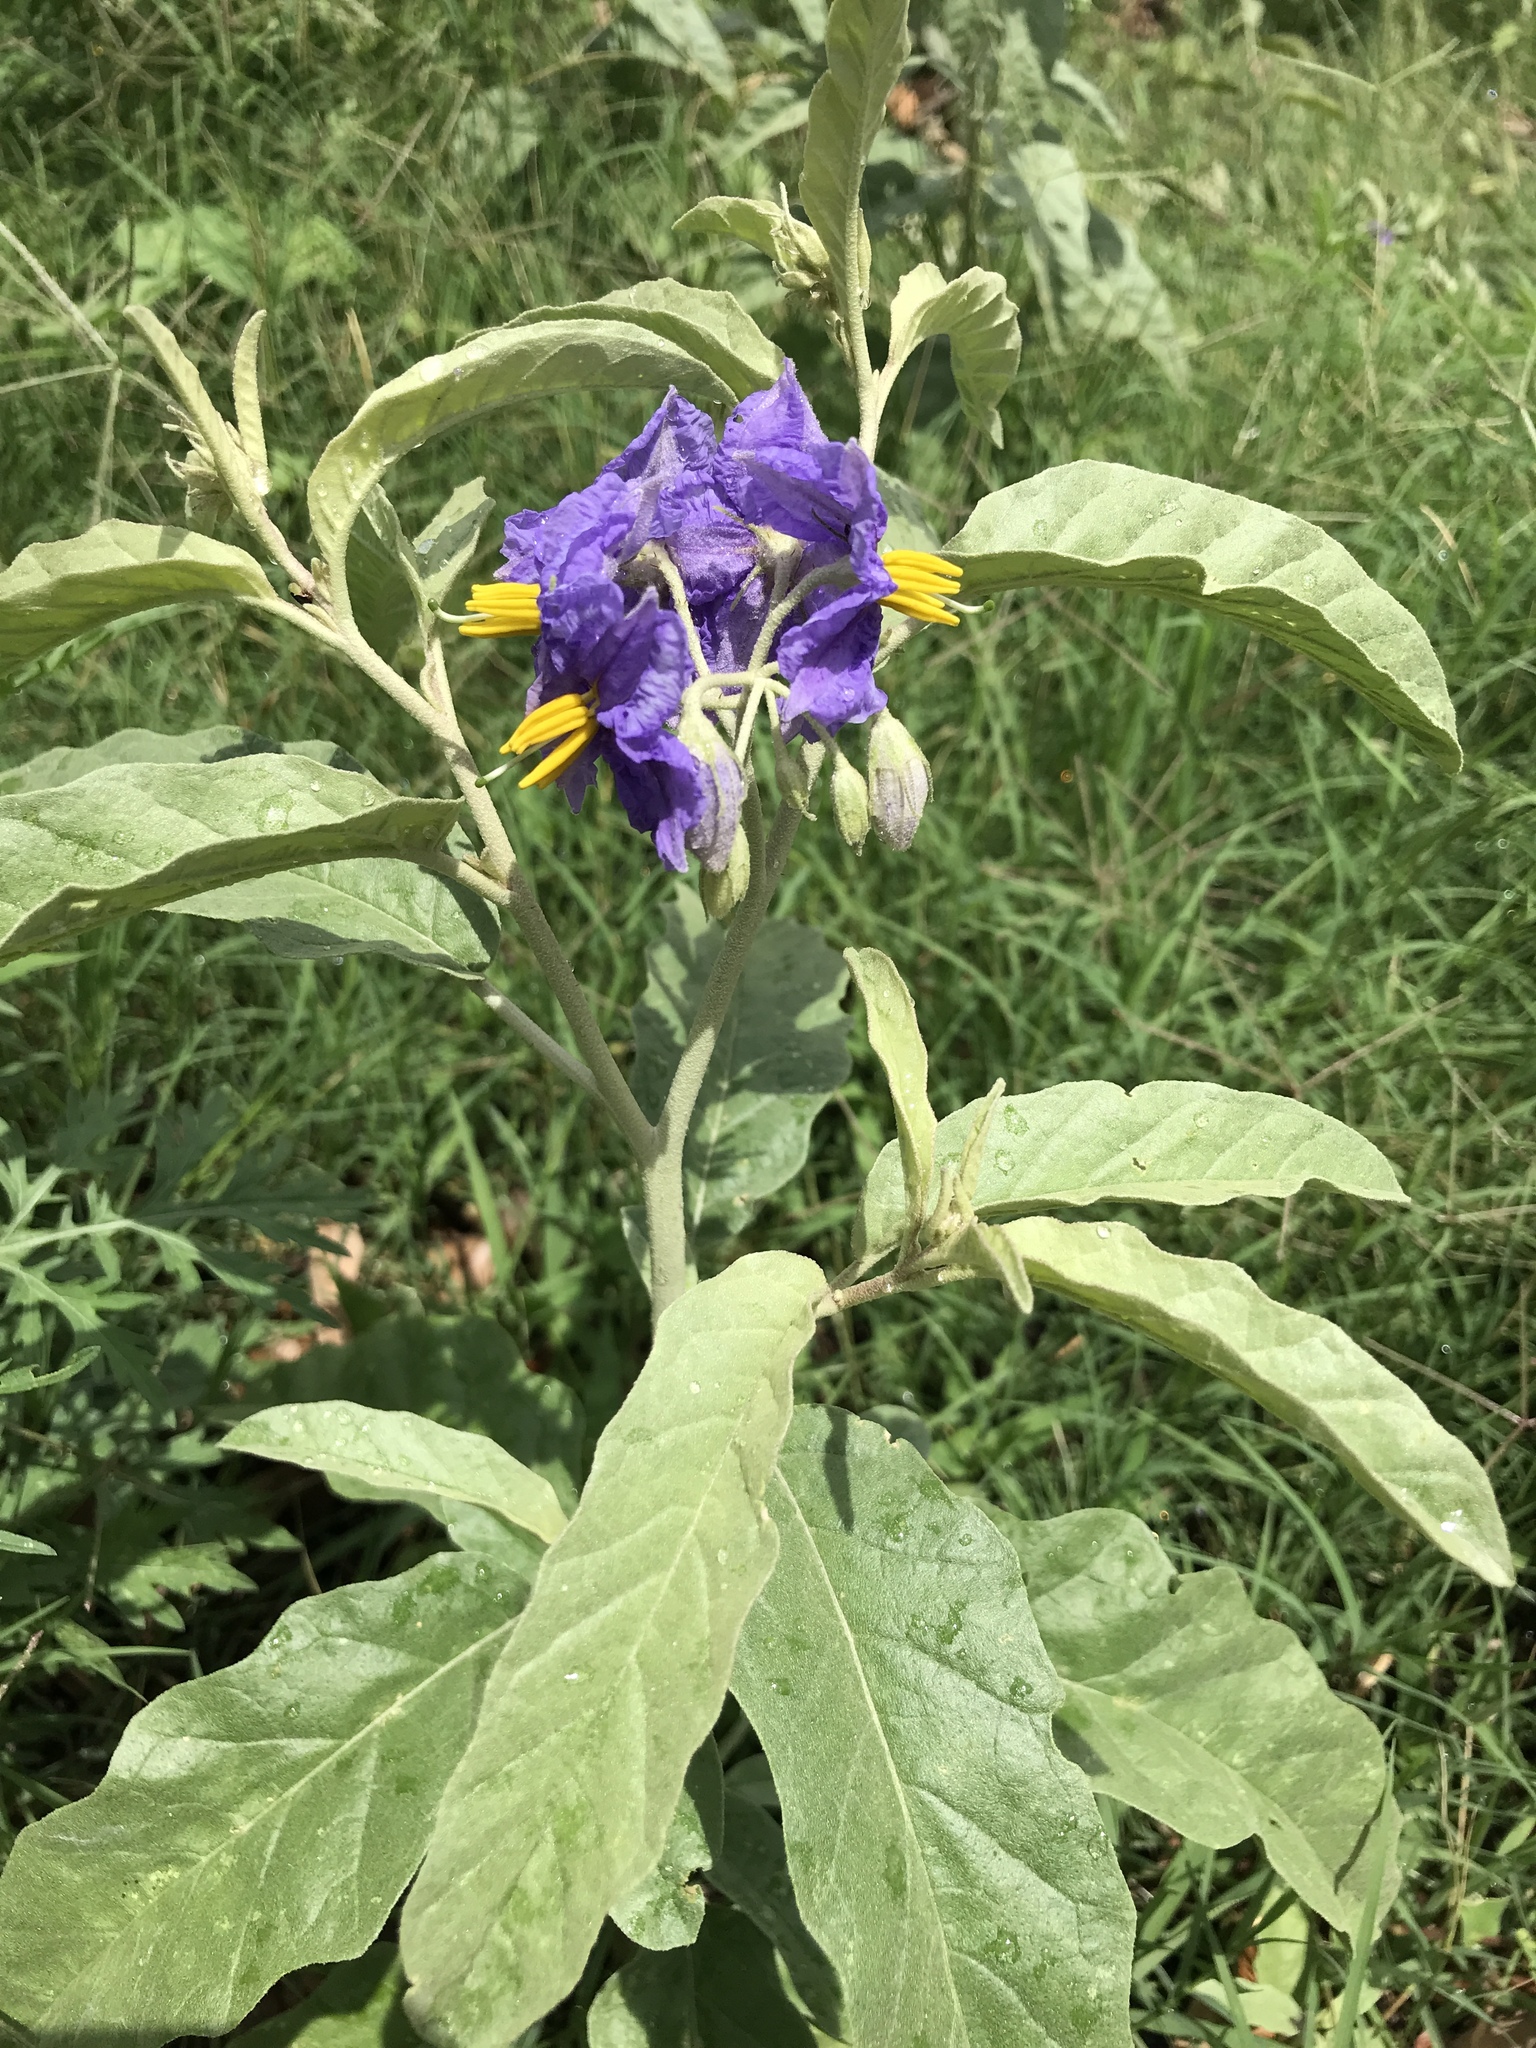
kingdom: Plantae
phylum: Tracheophyta
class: Magnoliopsida
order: Solanales
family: Solanaceae
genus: Solanum
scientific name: Solanum elaeagnifolium
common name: Silverleaf nightshade
